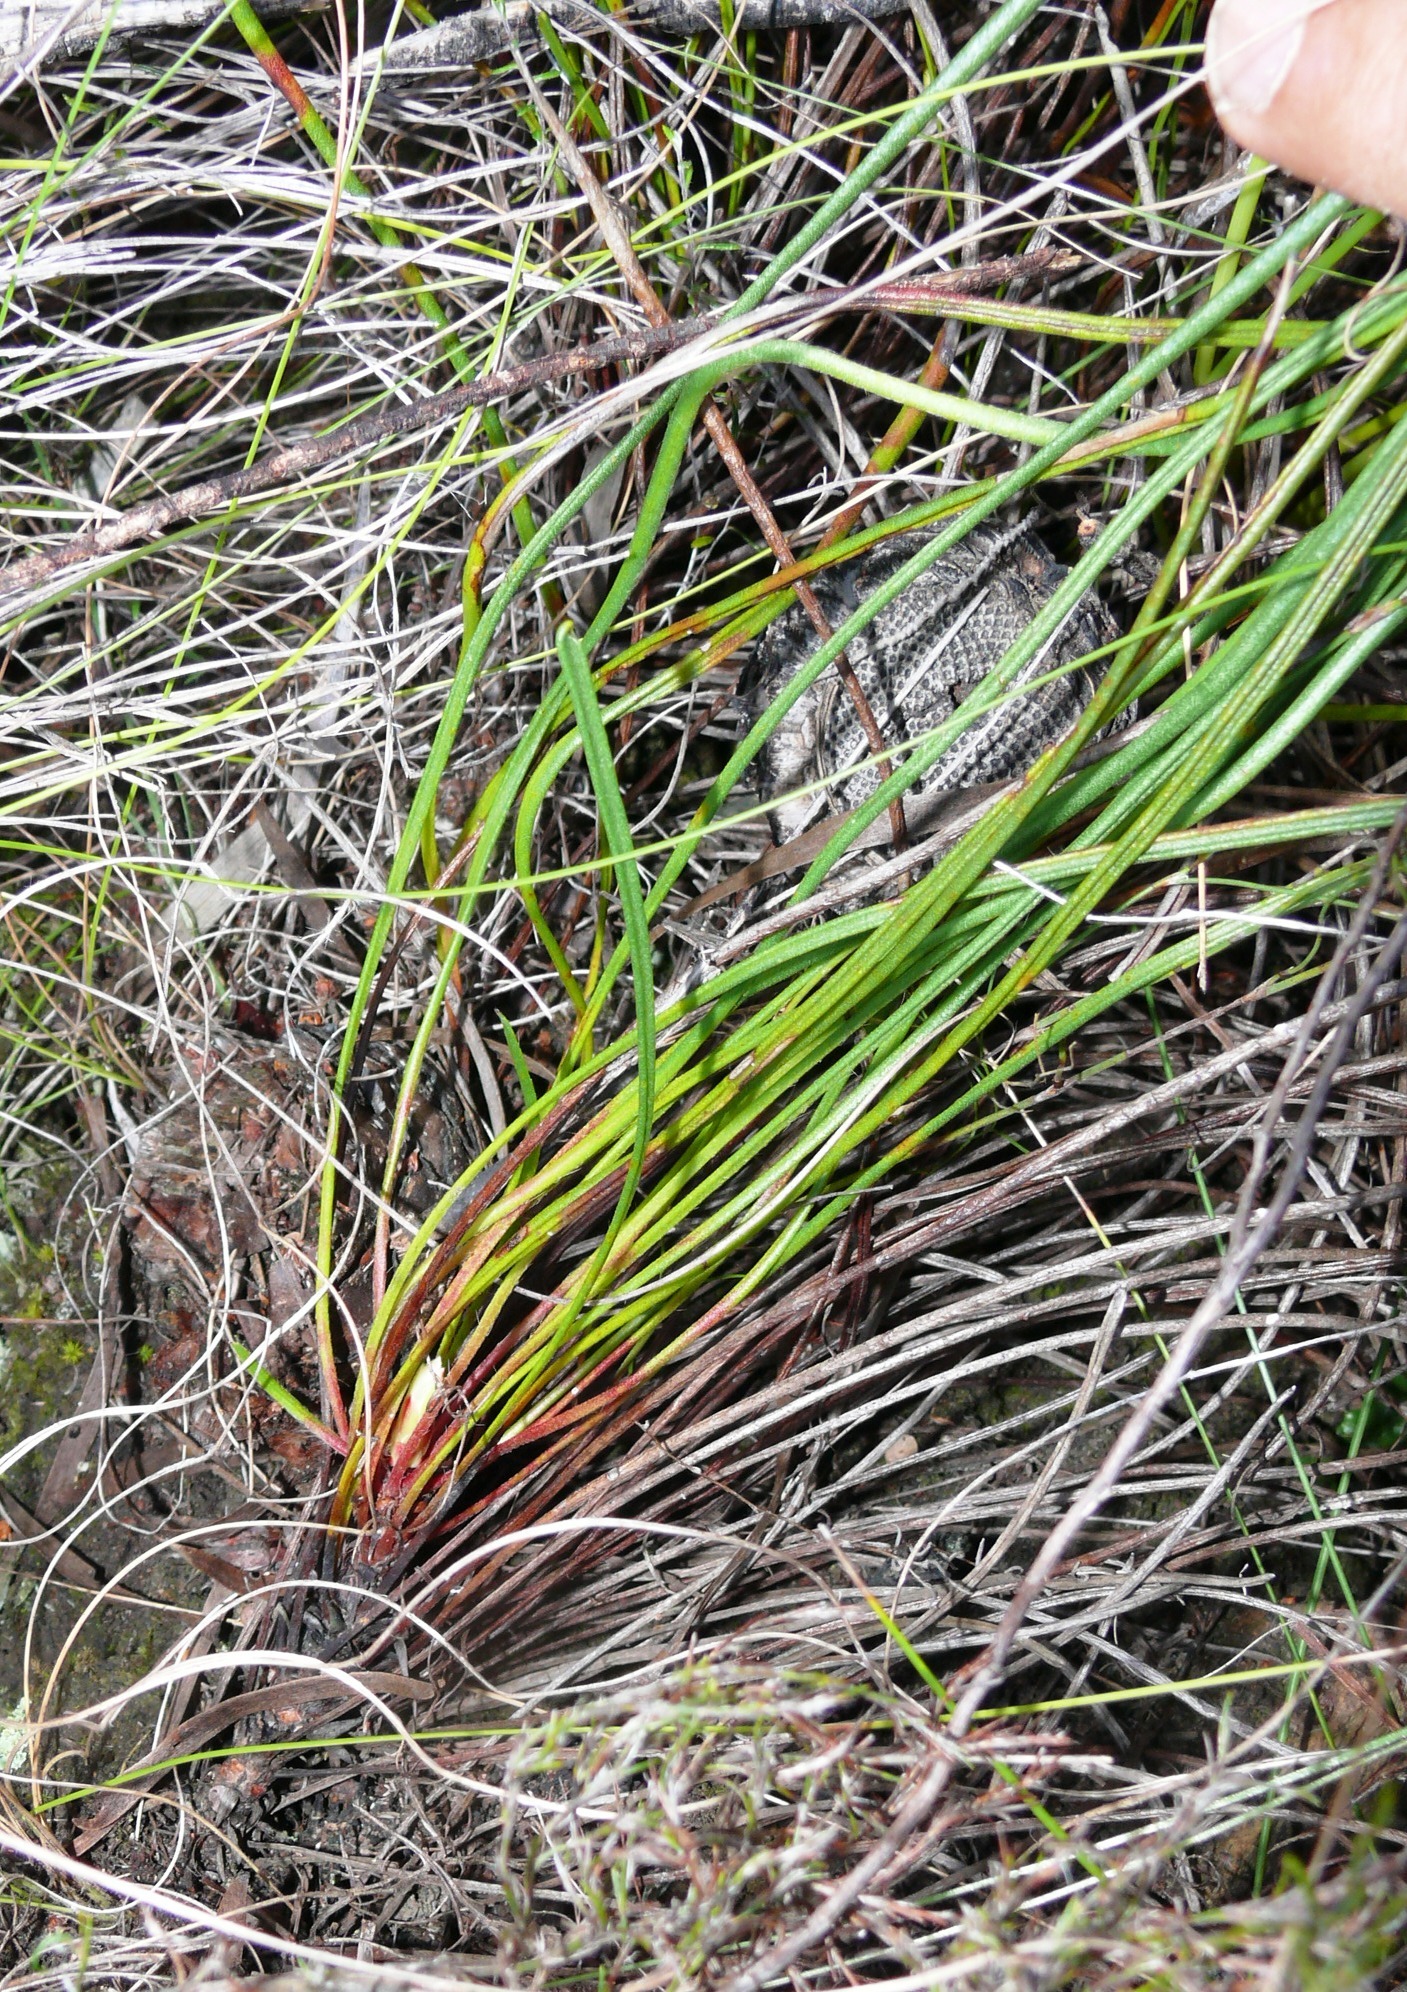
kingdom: Plantae
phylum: Tracheophyta
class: Magnoliopsida
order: Proteales
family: Proteaceae
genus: Protea
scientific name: Protea lorea
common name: Thong-leaf sugarbush
